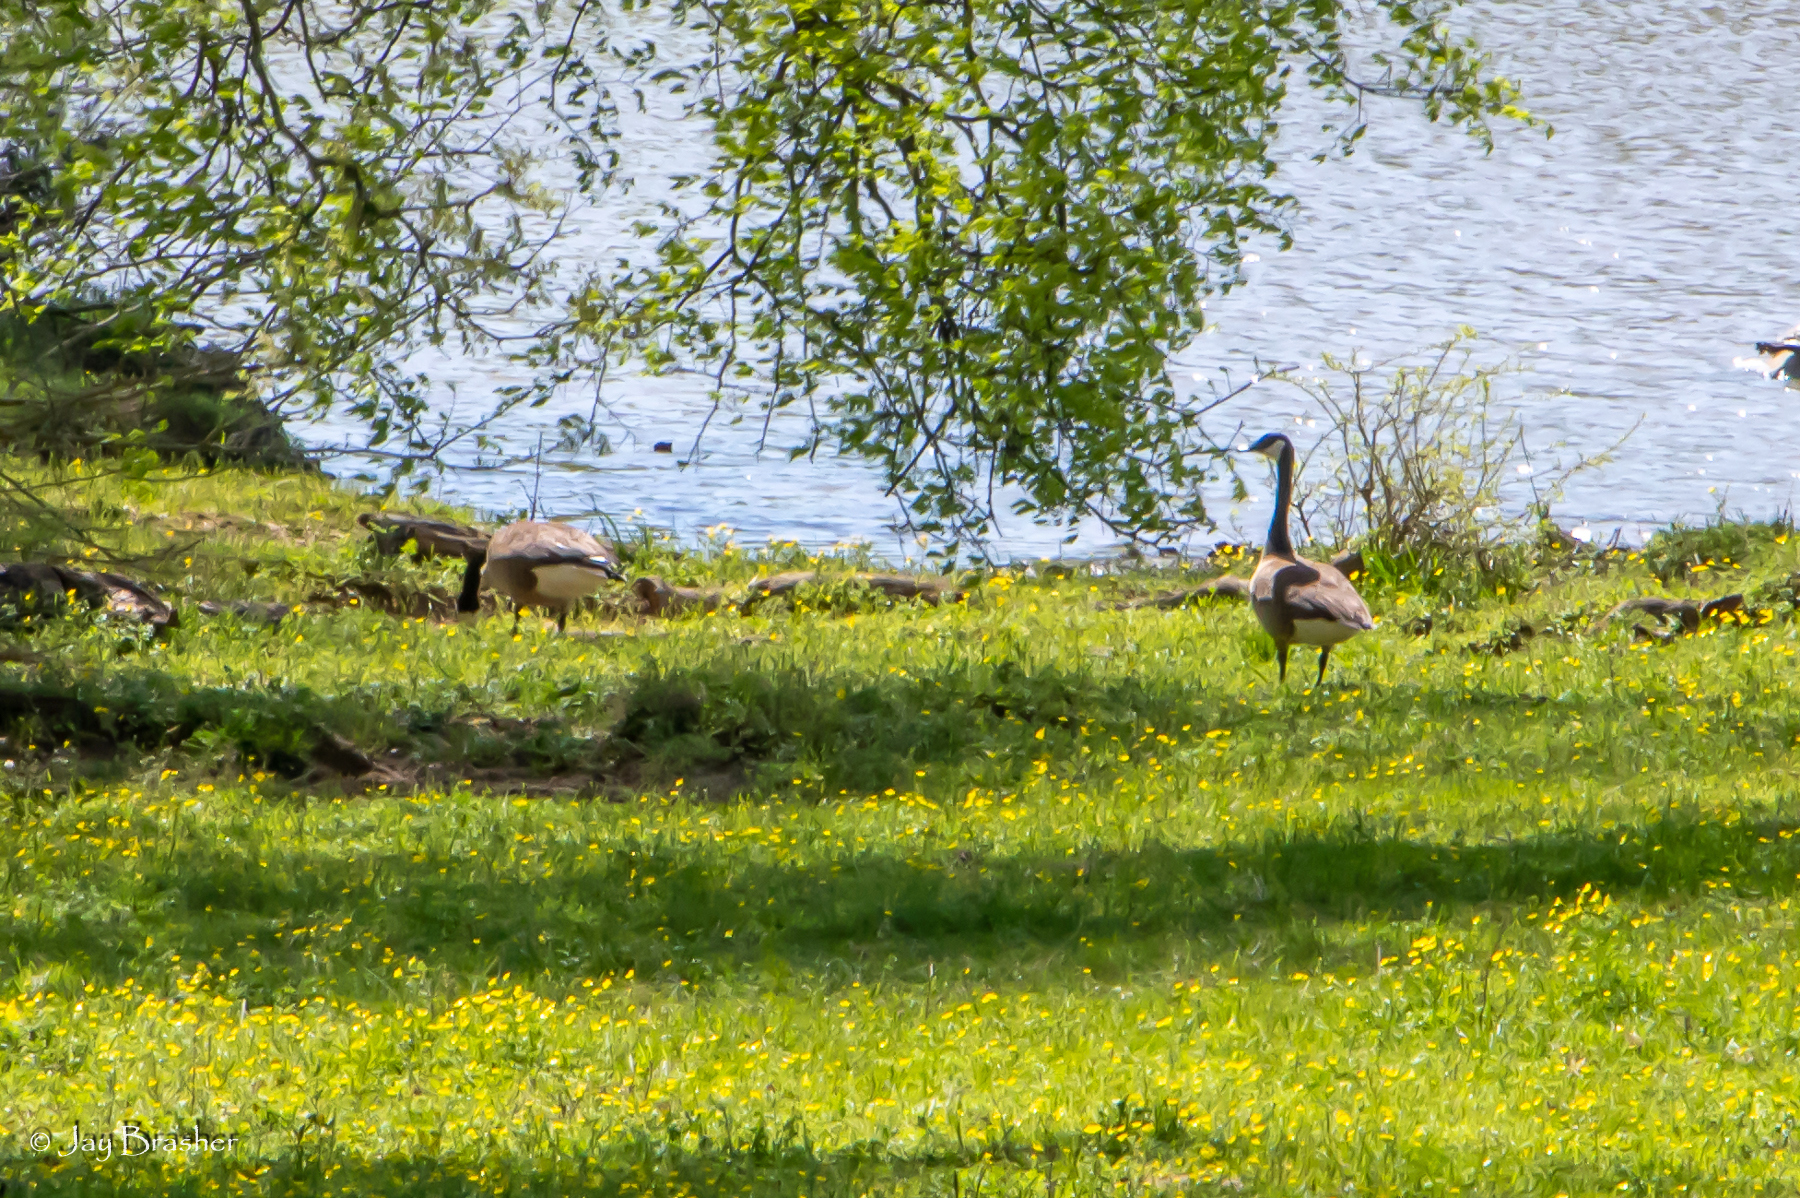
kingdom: Animalia
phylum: Chordata
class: Aves
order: Anseriformes
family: Anatidae
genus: Branta
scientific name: Branta canadensis
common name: Canada goose
